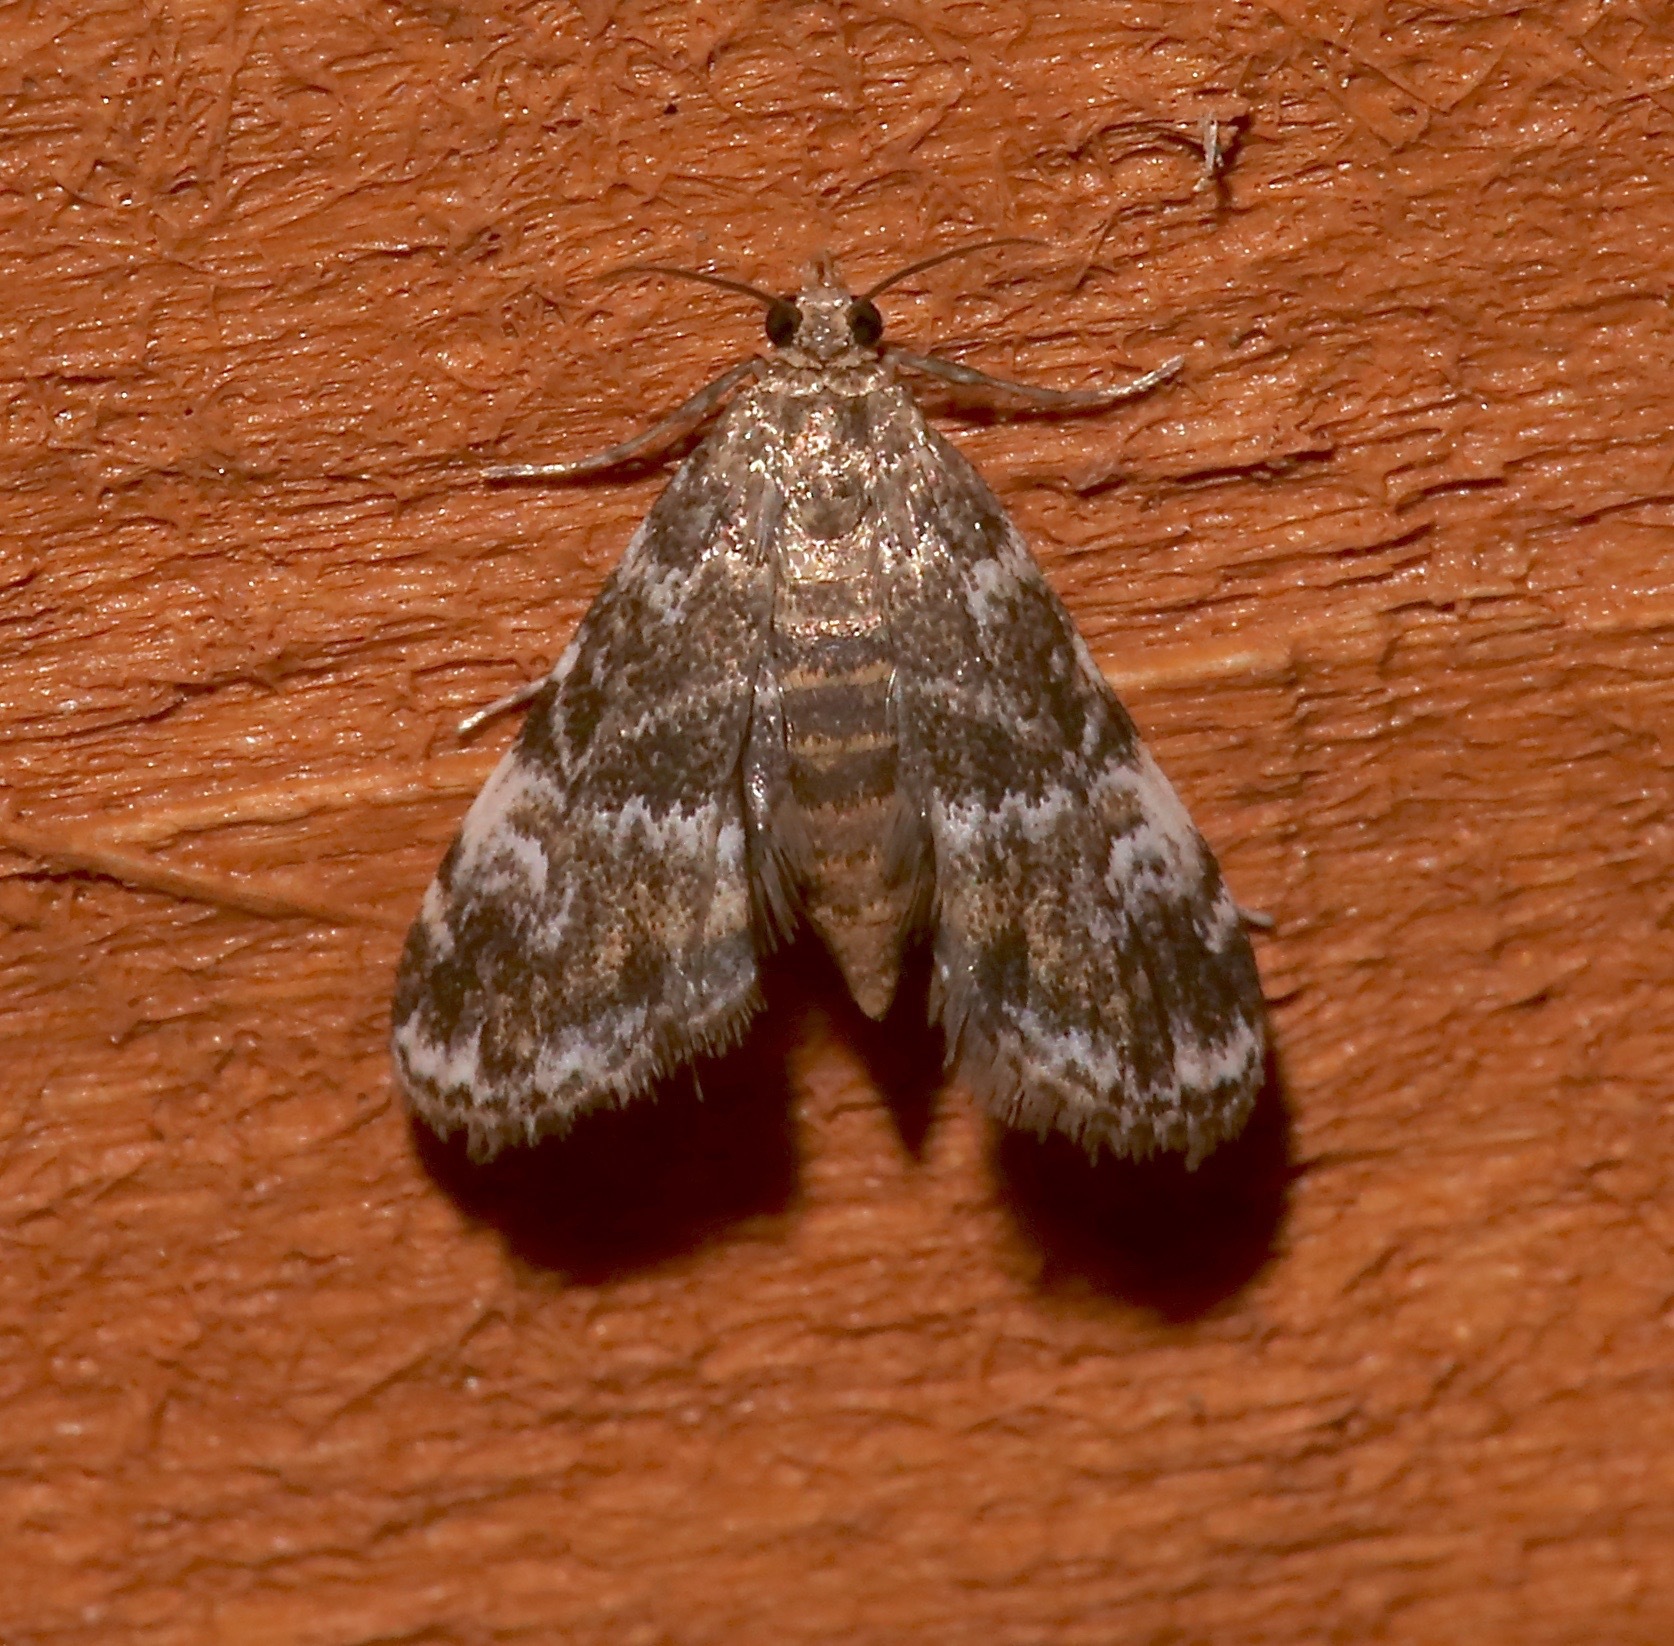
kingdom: Animalia
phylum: Arthropoda
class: Insecta
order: Lepidoptera
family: Crambidae
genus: Elophila
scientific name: Elophila obliteralis
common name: Waterlily leafcutter moth
